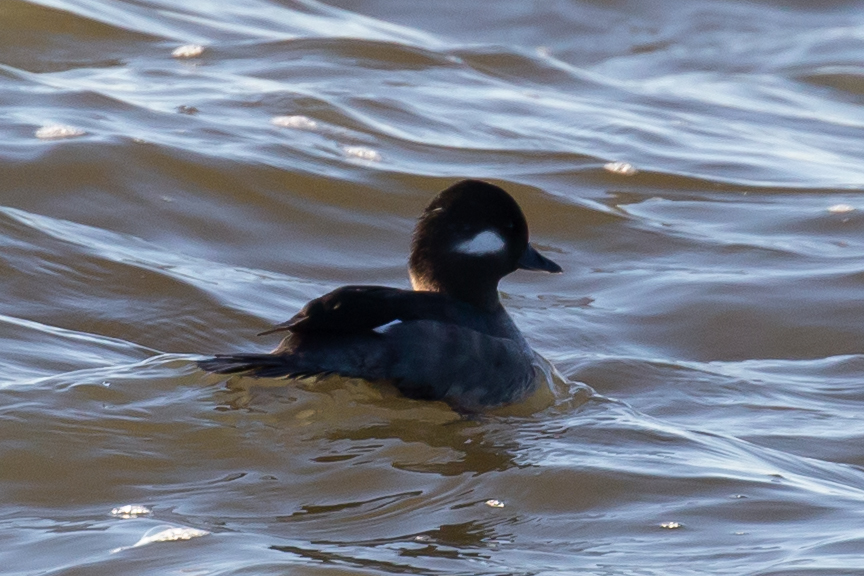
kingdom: Animalia
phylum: Chordata
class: Aves
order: Anseriformes
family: Anatidae
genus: Bucephala
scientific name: Bucephala albeola
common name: Bufflehead
